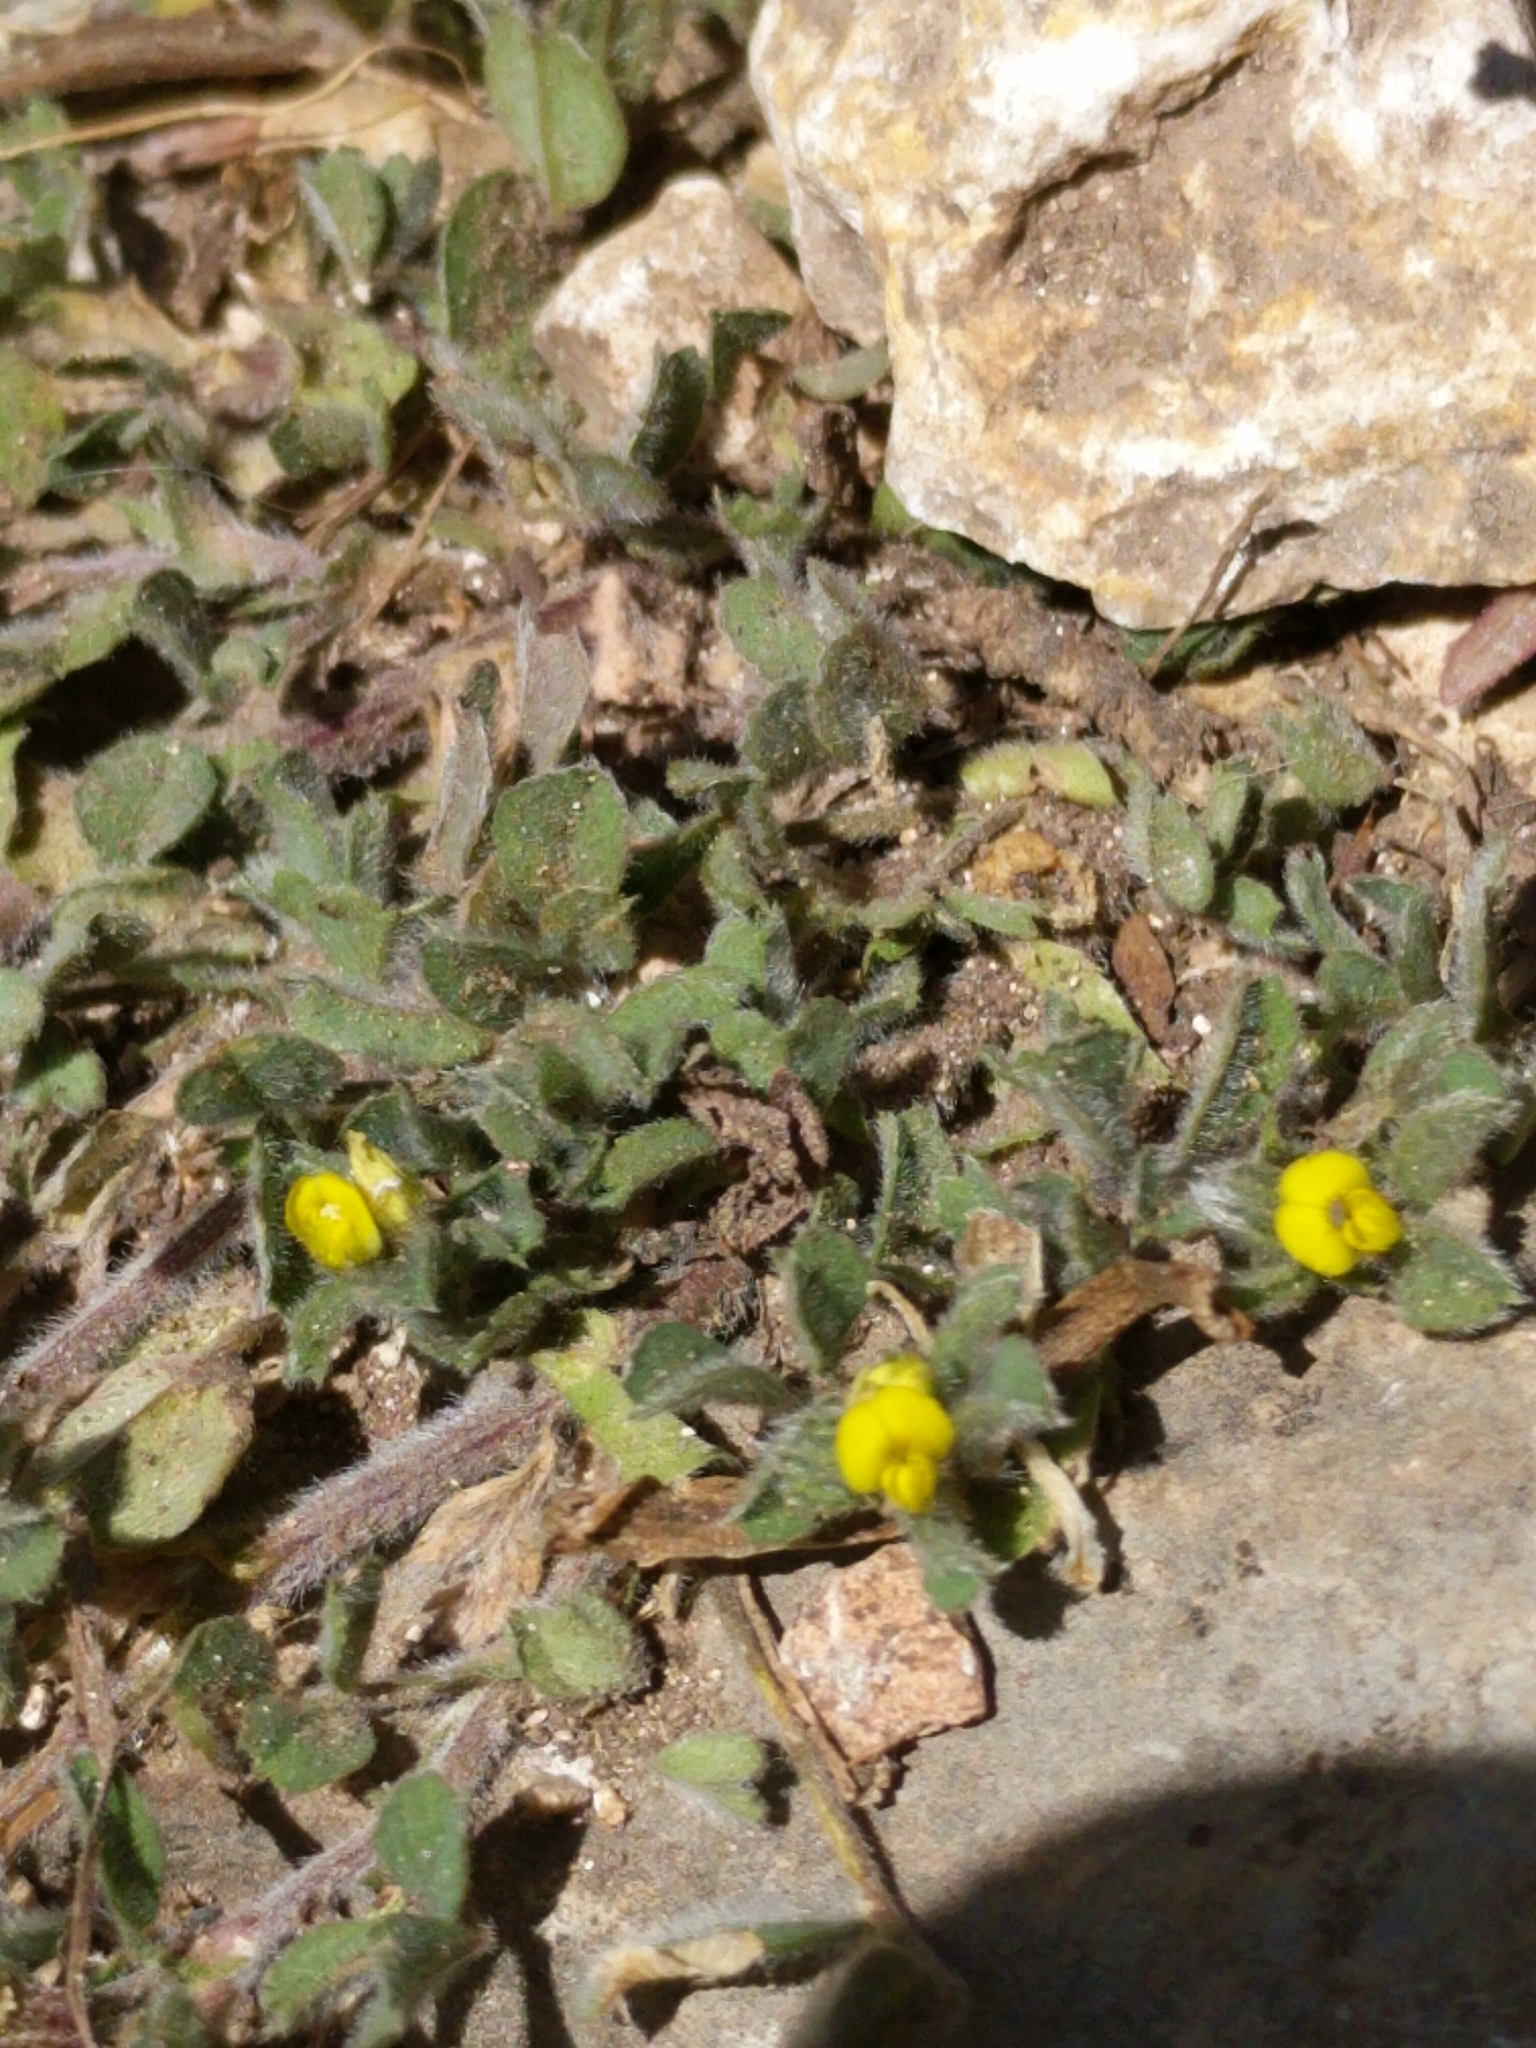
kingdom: Plantae
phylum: Tracheophyta
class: Magnoliopsida
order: Fabales
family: Fabaceae
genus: Medicago
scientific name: Medicago minima
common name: Little bur-clover
